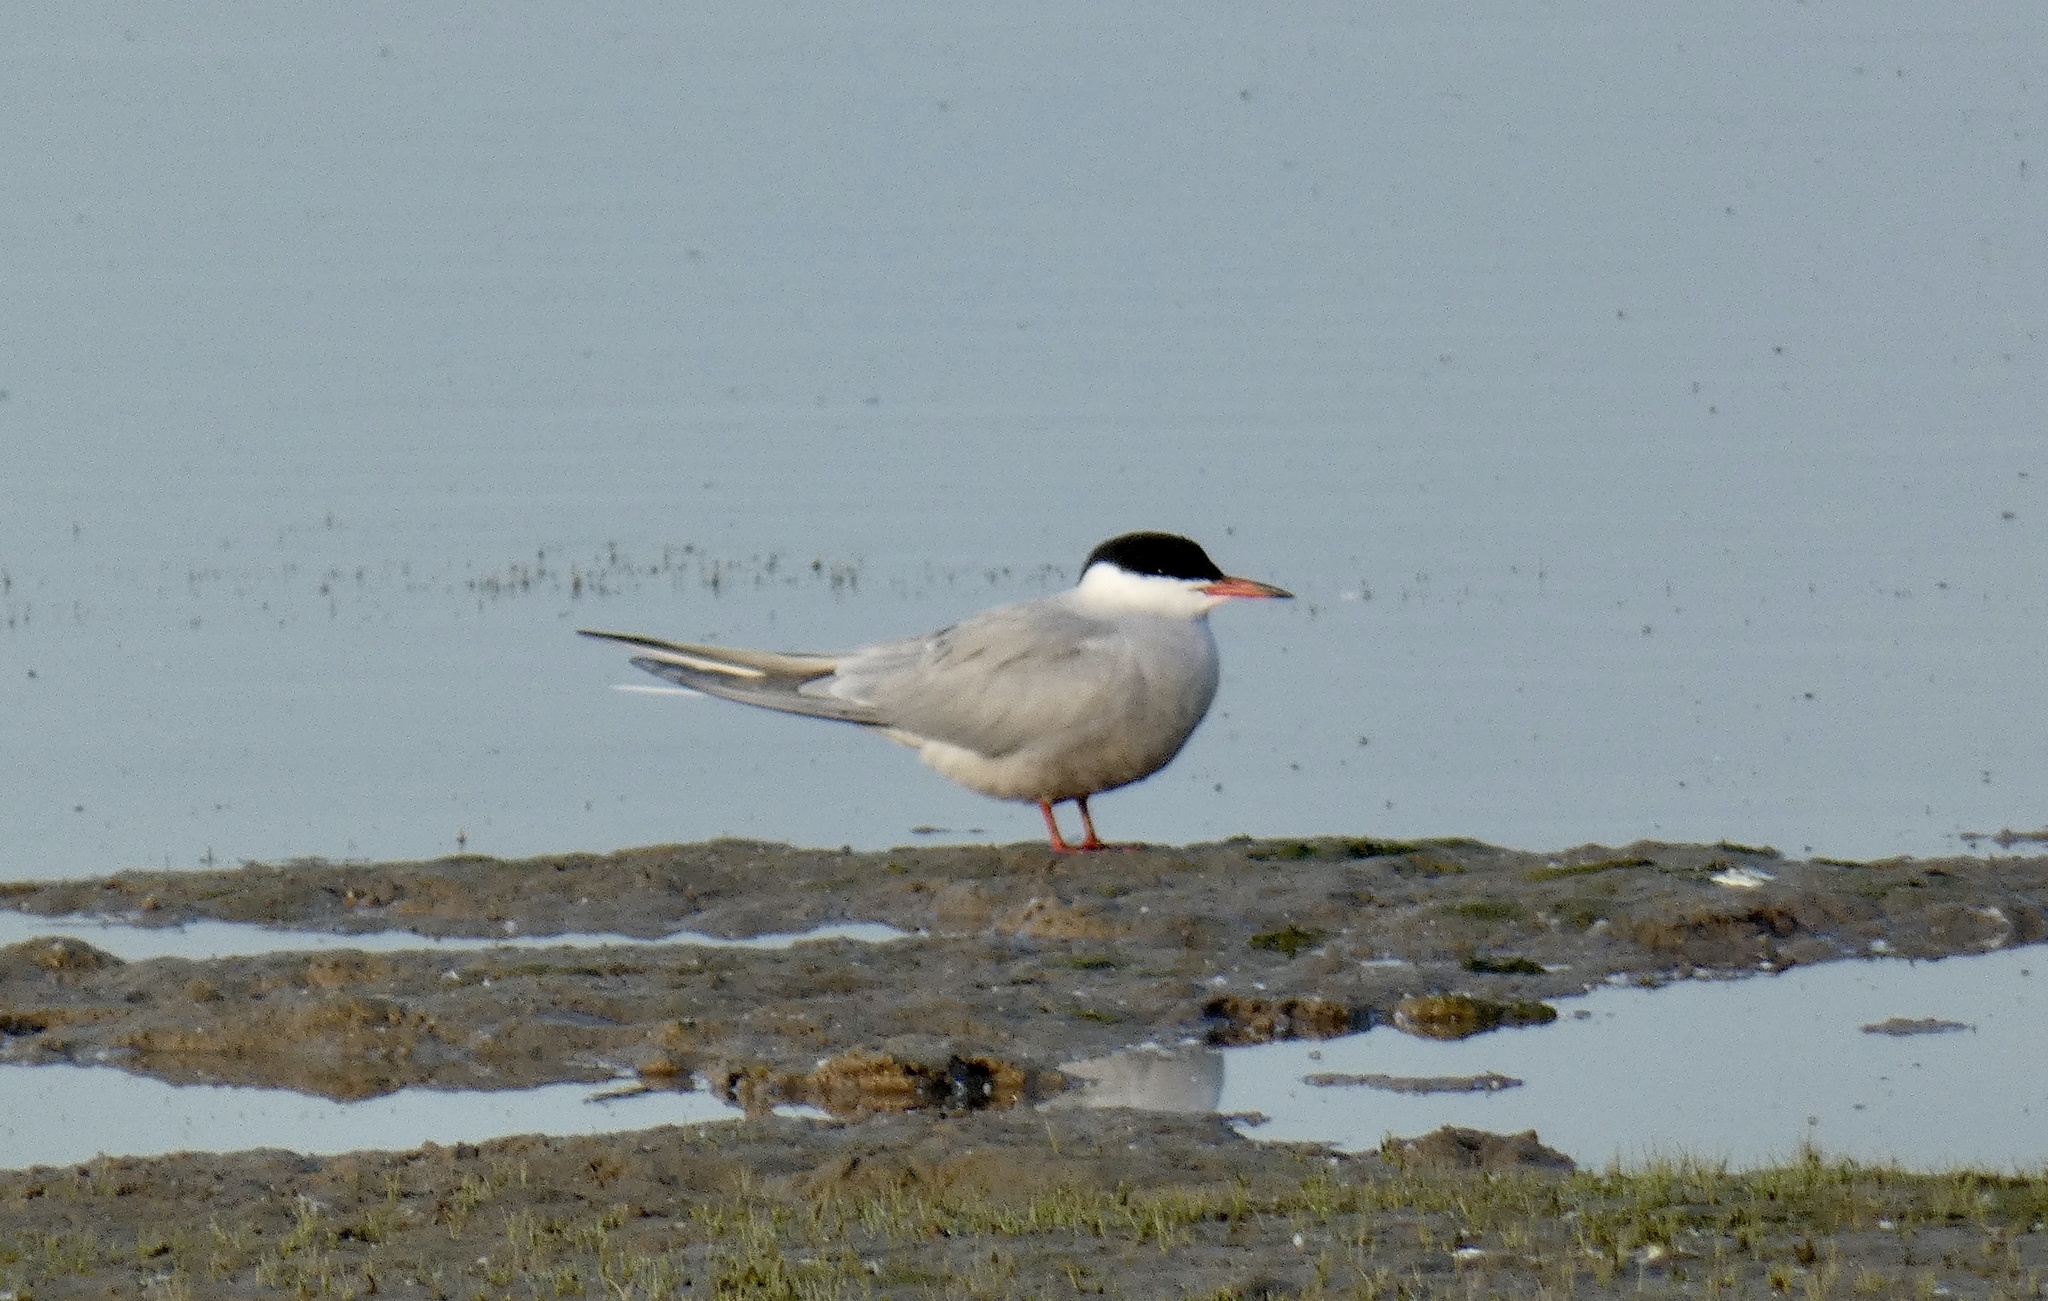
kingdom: Animalia
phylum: Chordata
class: Aves
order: Charadriiformes
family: Laridae
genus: Sterna
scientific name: Sterna hirundo
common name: Common tern
